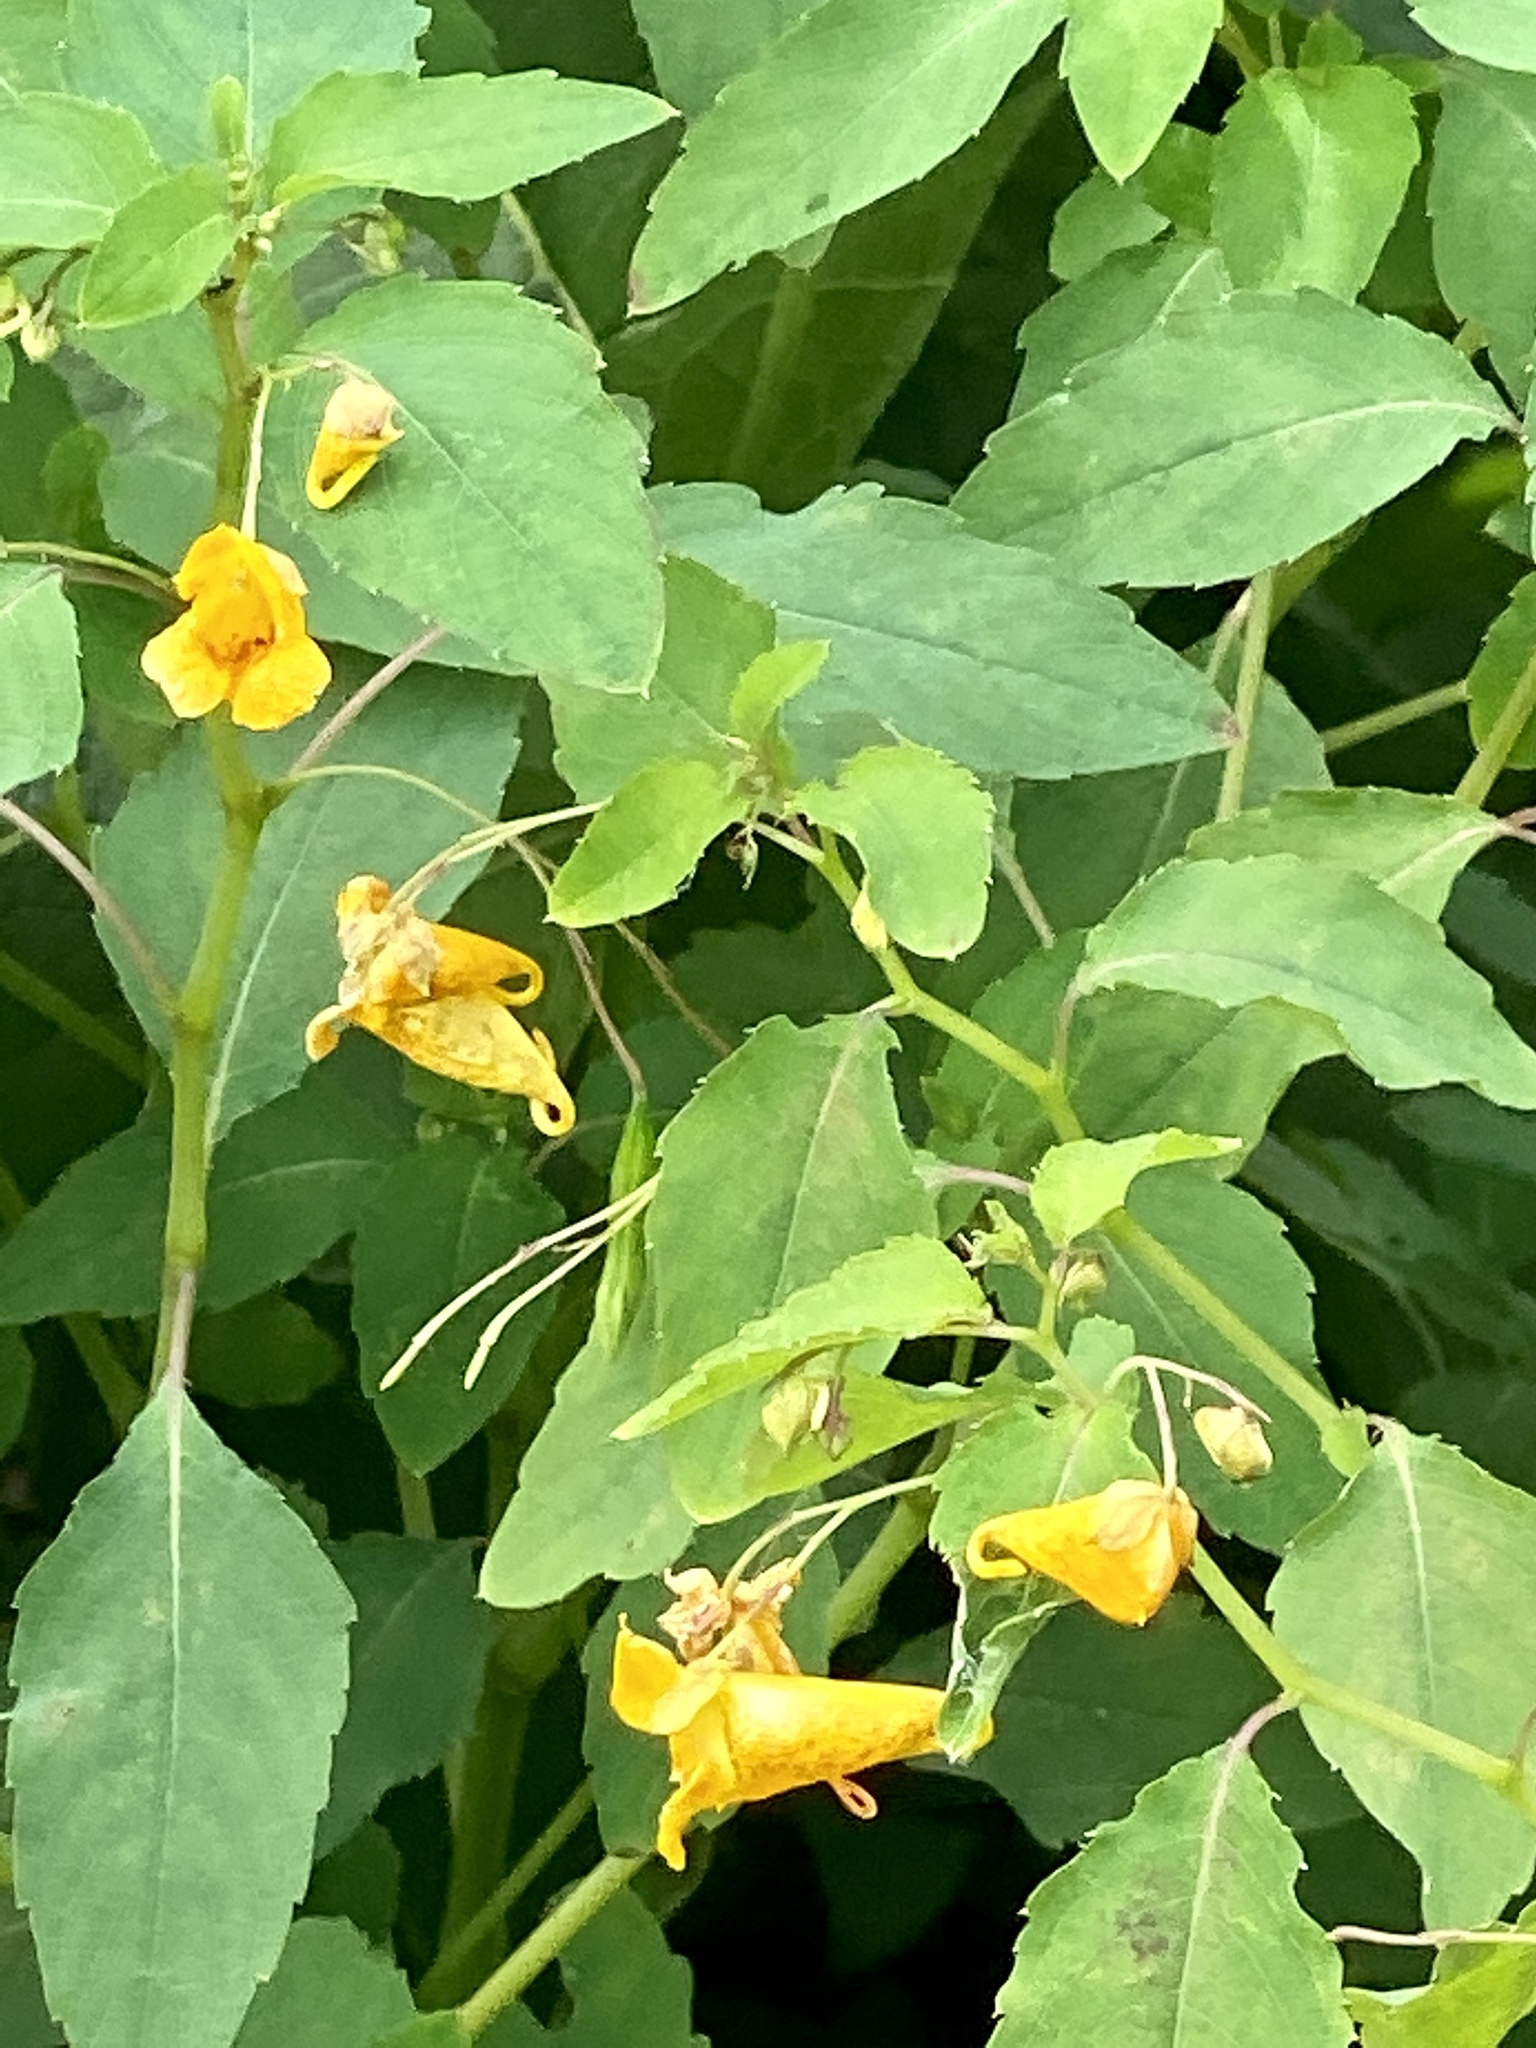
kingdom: Plantae
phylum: Tracheophyta
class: Magnoliopsida
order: Ericales
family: Balsaminaceae
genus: Impatiens
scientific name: Impatiens capensis
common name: Orange balsam
